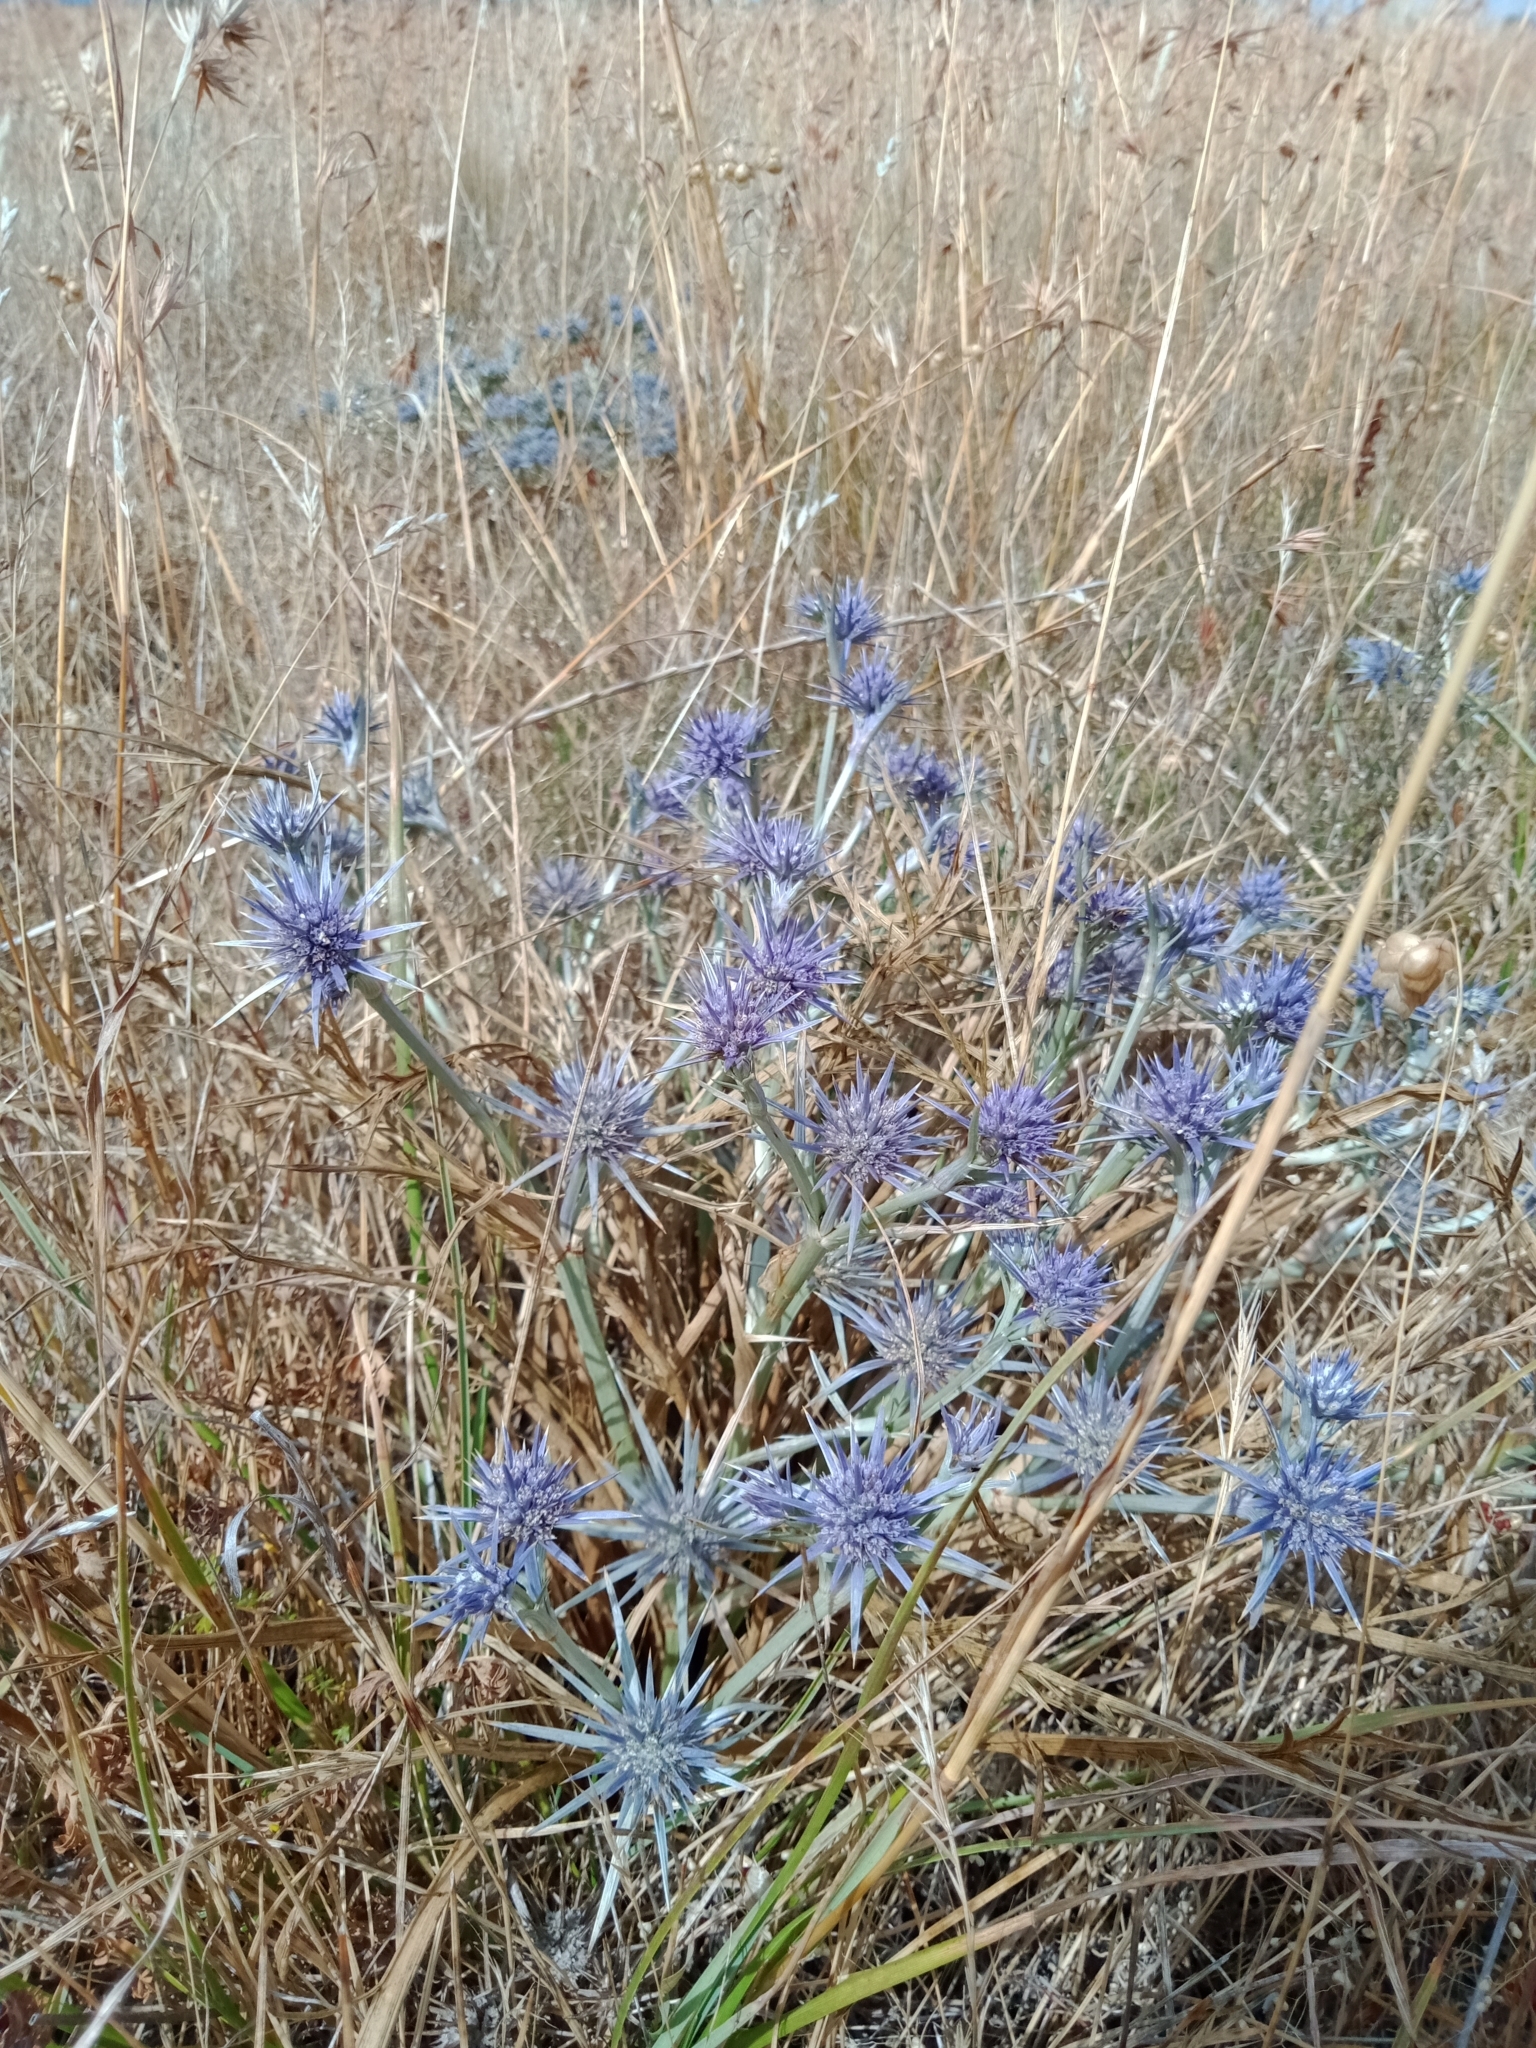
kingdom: Plantae
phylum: Tracheophyta
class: Magnoliopsida
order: Apiales
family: Apiaceae
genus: Eryngium
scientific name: Eryngium ovinum
